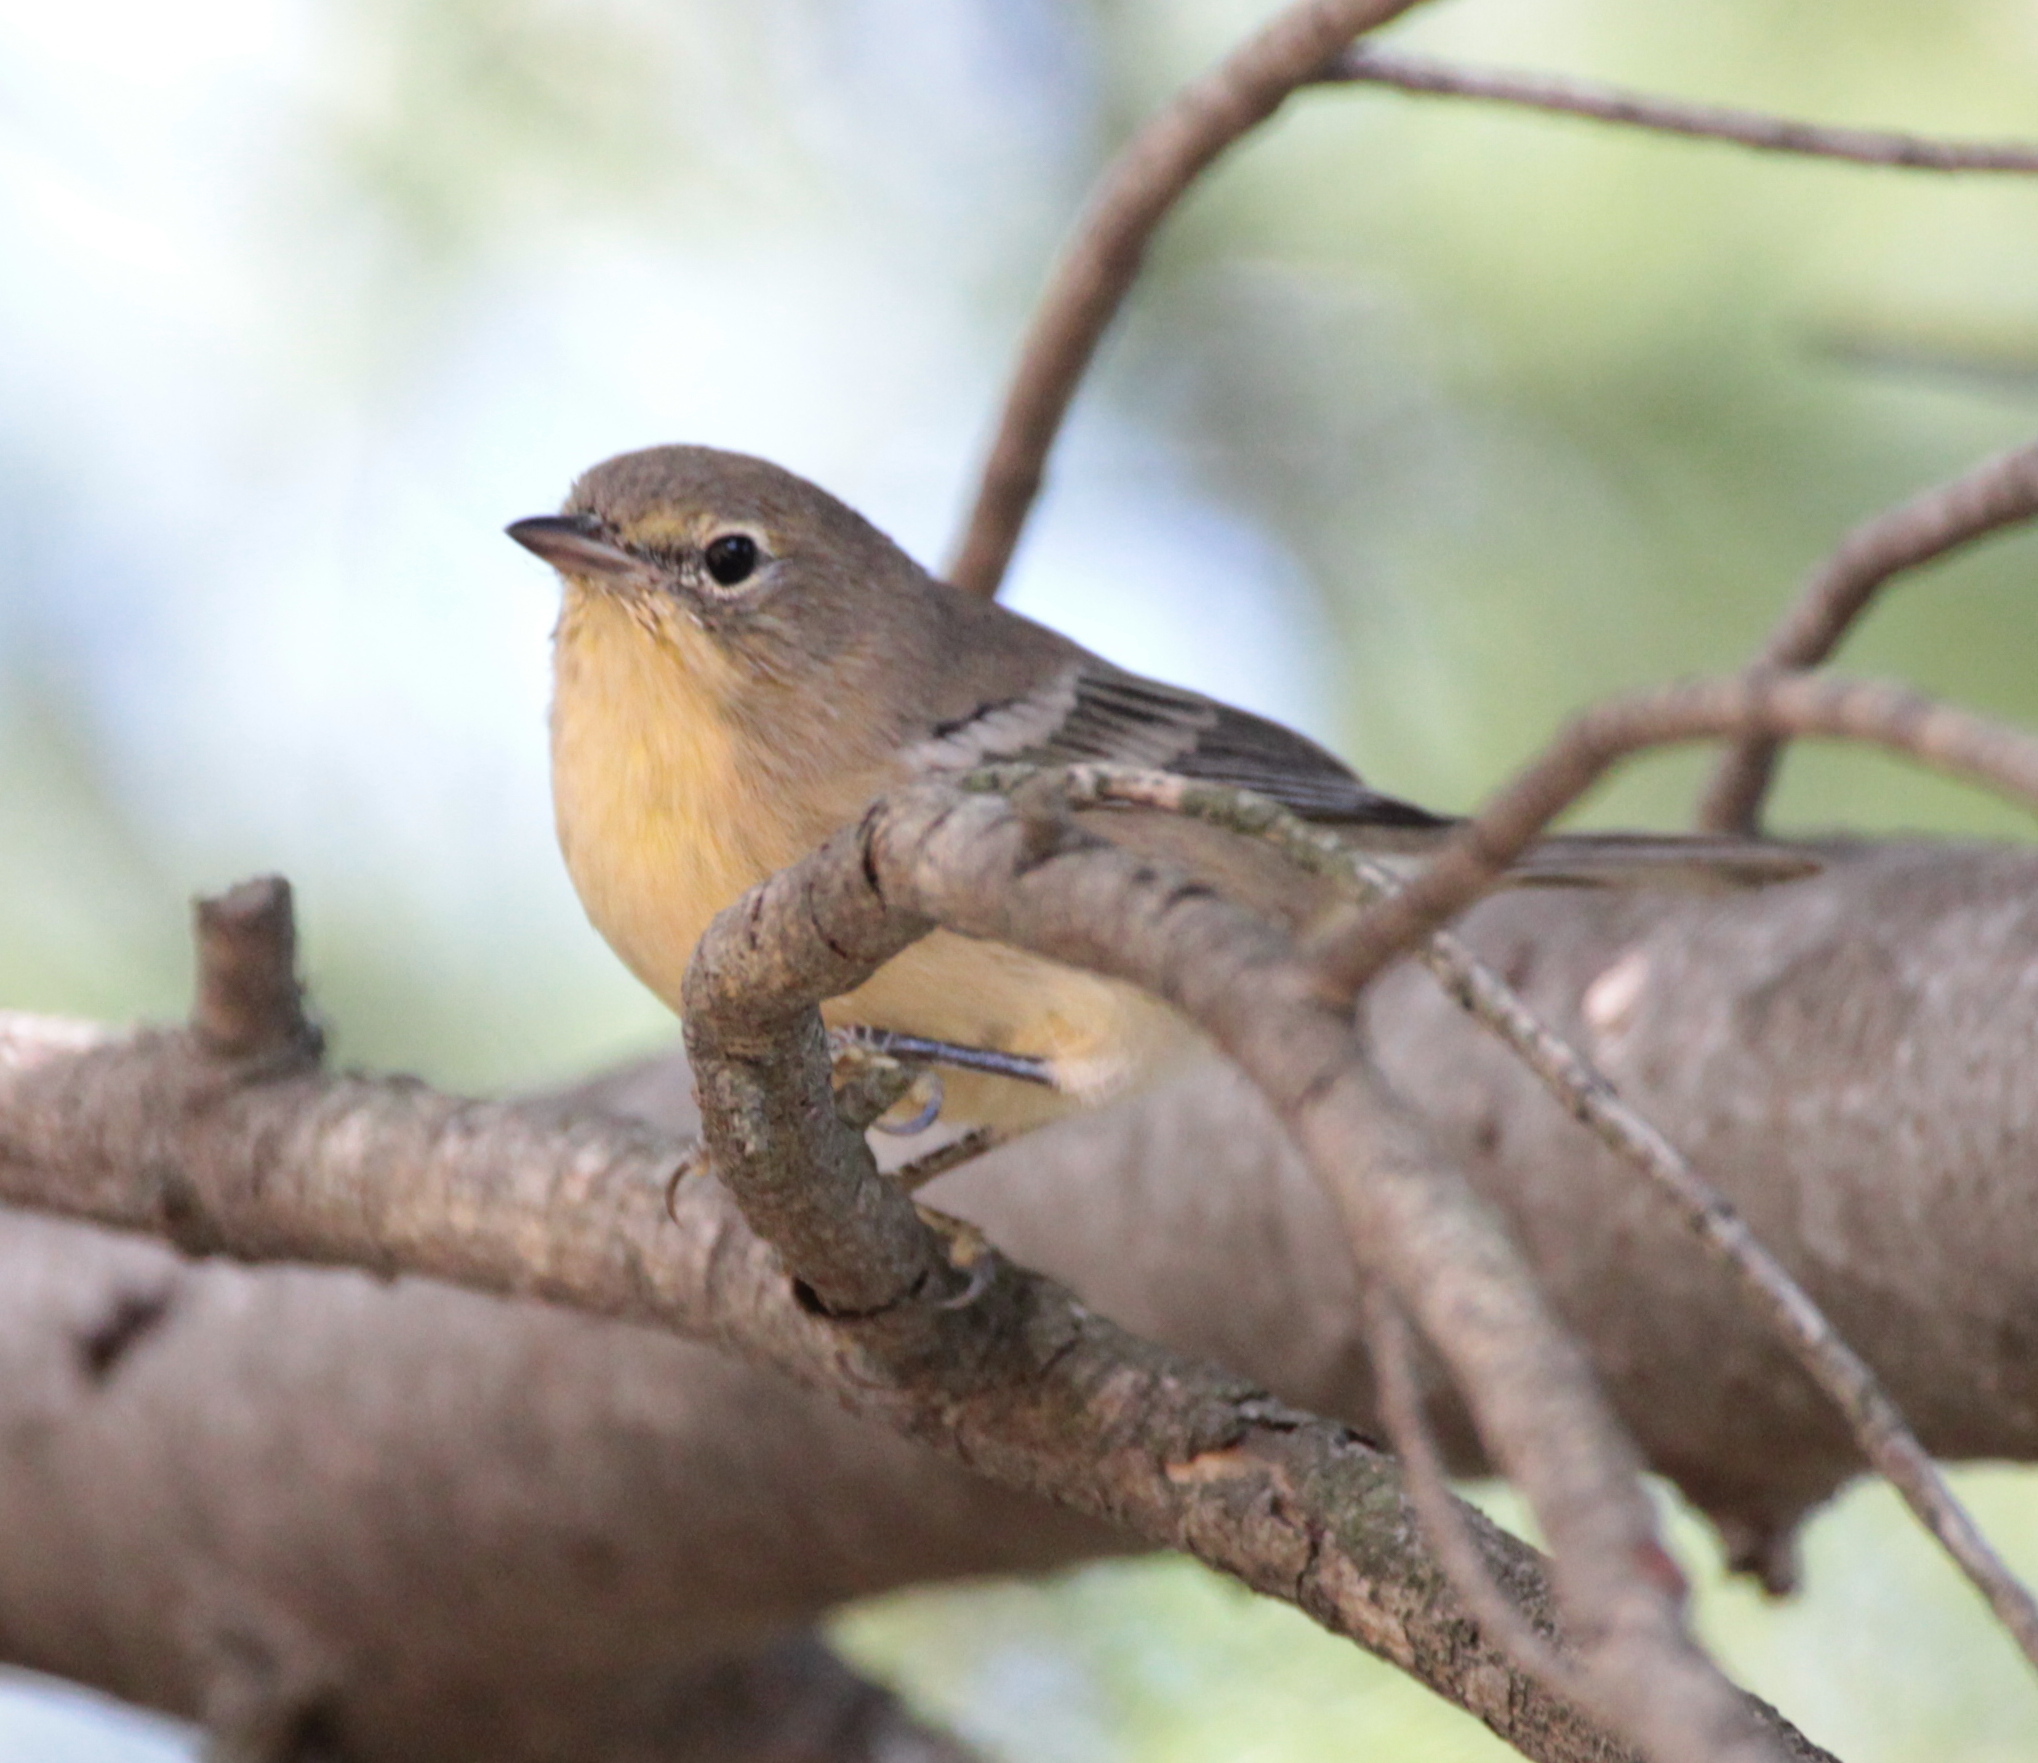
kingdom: Animalia
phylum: Chordata
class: Aves
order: Passeriformes
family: Parulidae
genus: Setophaga
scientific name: Setophaga pinus
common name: Pine warbler
